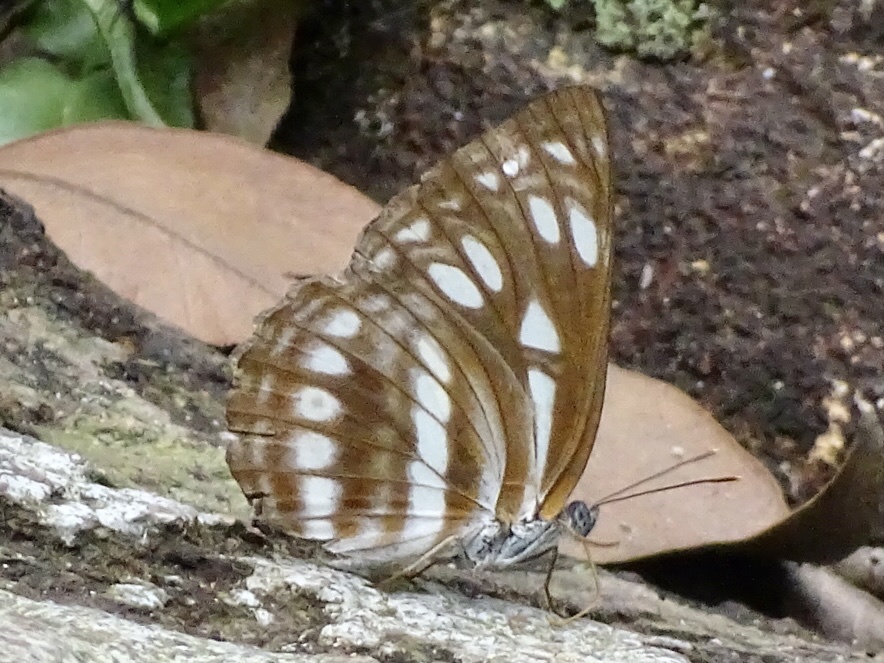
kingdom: Animalia
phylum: Arthropoda
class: Insecta
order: Lepidoptera
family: Nymphalidae
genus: Phaedyma
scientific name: Phaedyma columella
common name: Short banded sailer
